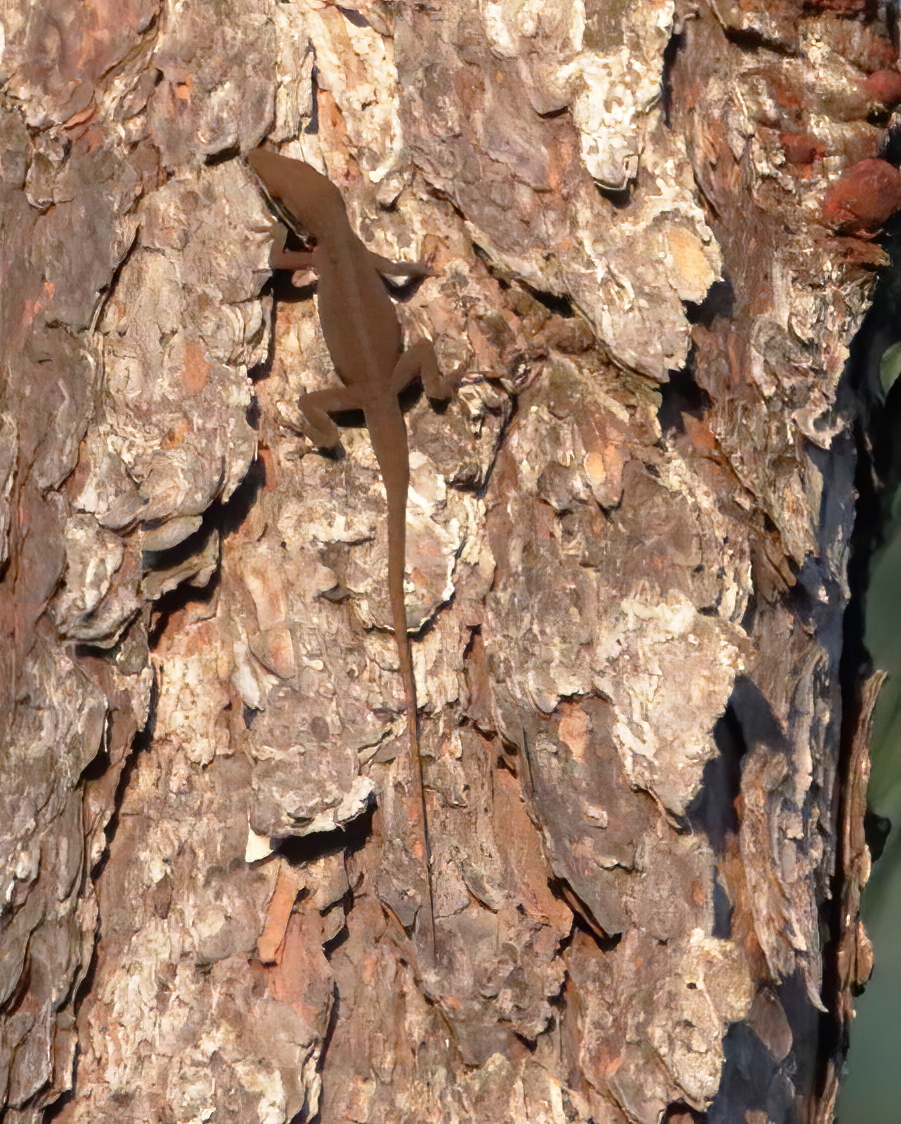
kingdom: Animalia
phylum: Chordata
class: Squamata
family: Dactyloidae
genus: Anolis
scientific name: Anolis carolinensis
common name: Green anole
